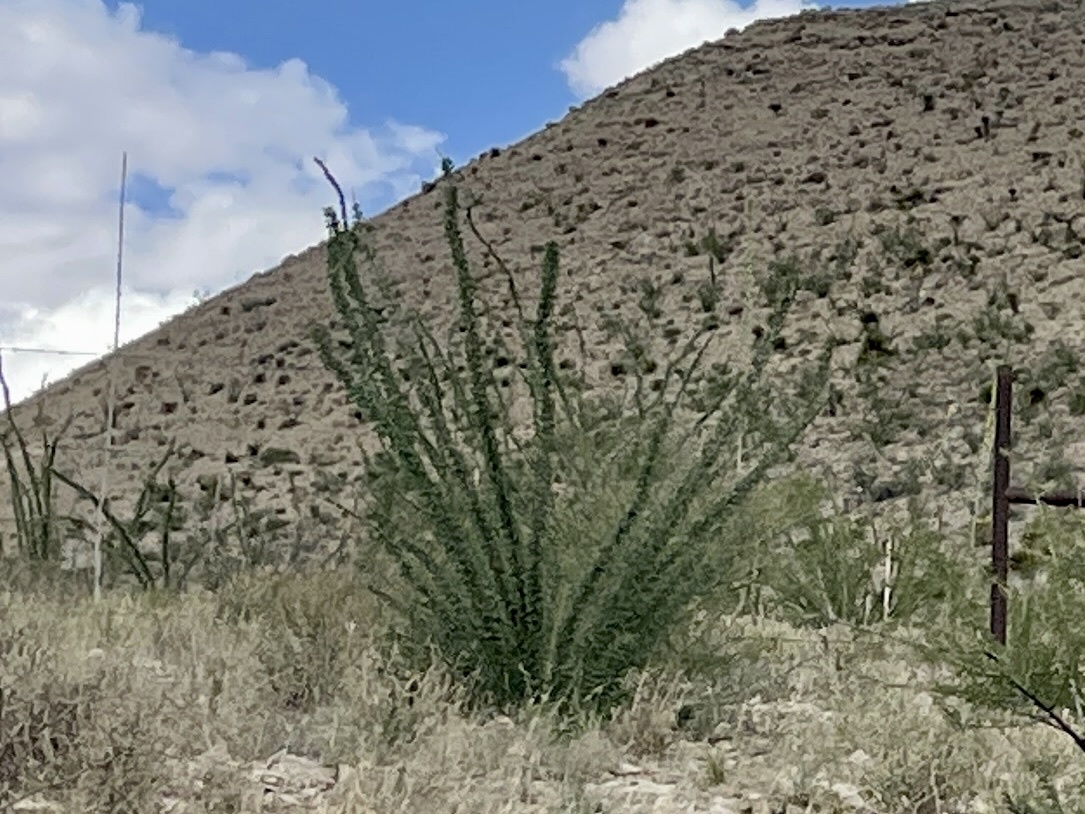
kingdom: Plantae
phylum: Tracheophyta
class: Magnoliopsida
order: Ericales
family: Fouquieriaceae
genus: Fouquieria
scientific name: Fouquieria splendens
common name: Vine-cactus
